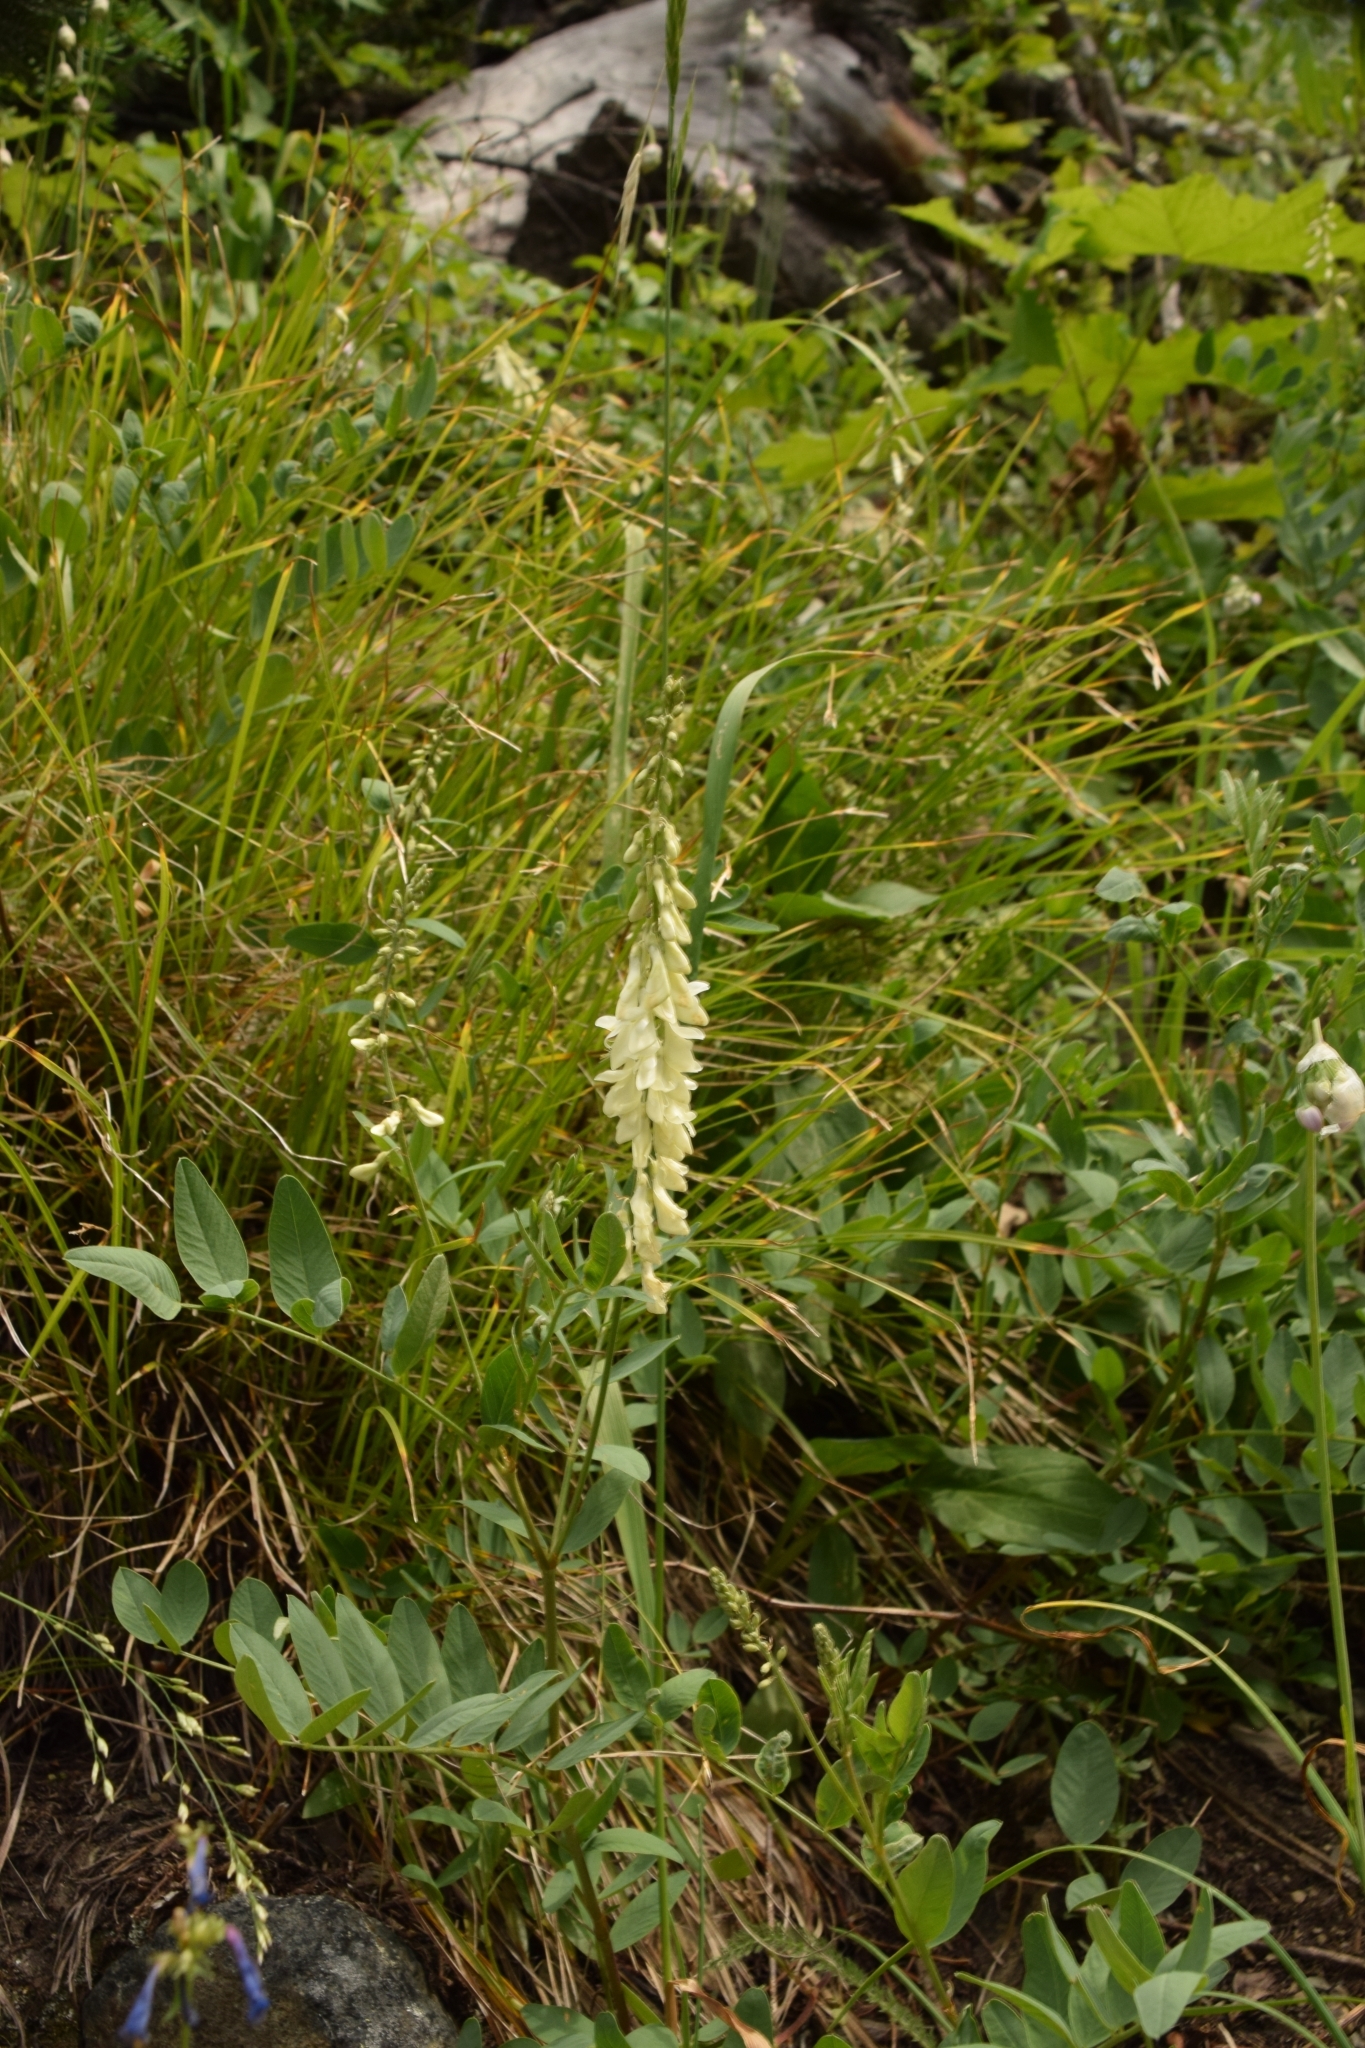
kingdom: Plantae
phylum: Tracheophyta
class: Magnoliopsida
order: Fabales
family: Fabaceae
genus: Hedysarum
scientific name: Hedysarum sulphurescens
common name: Sulphur hedysarum
